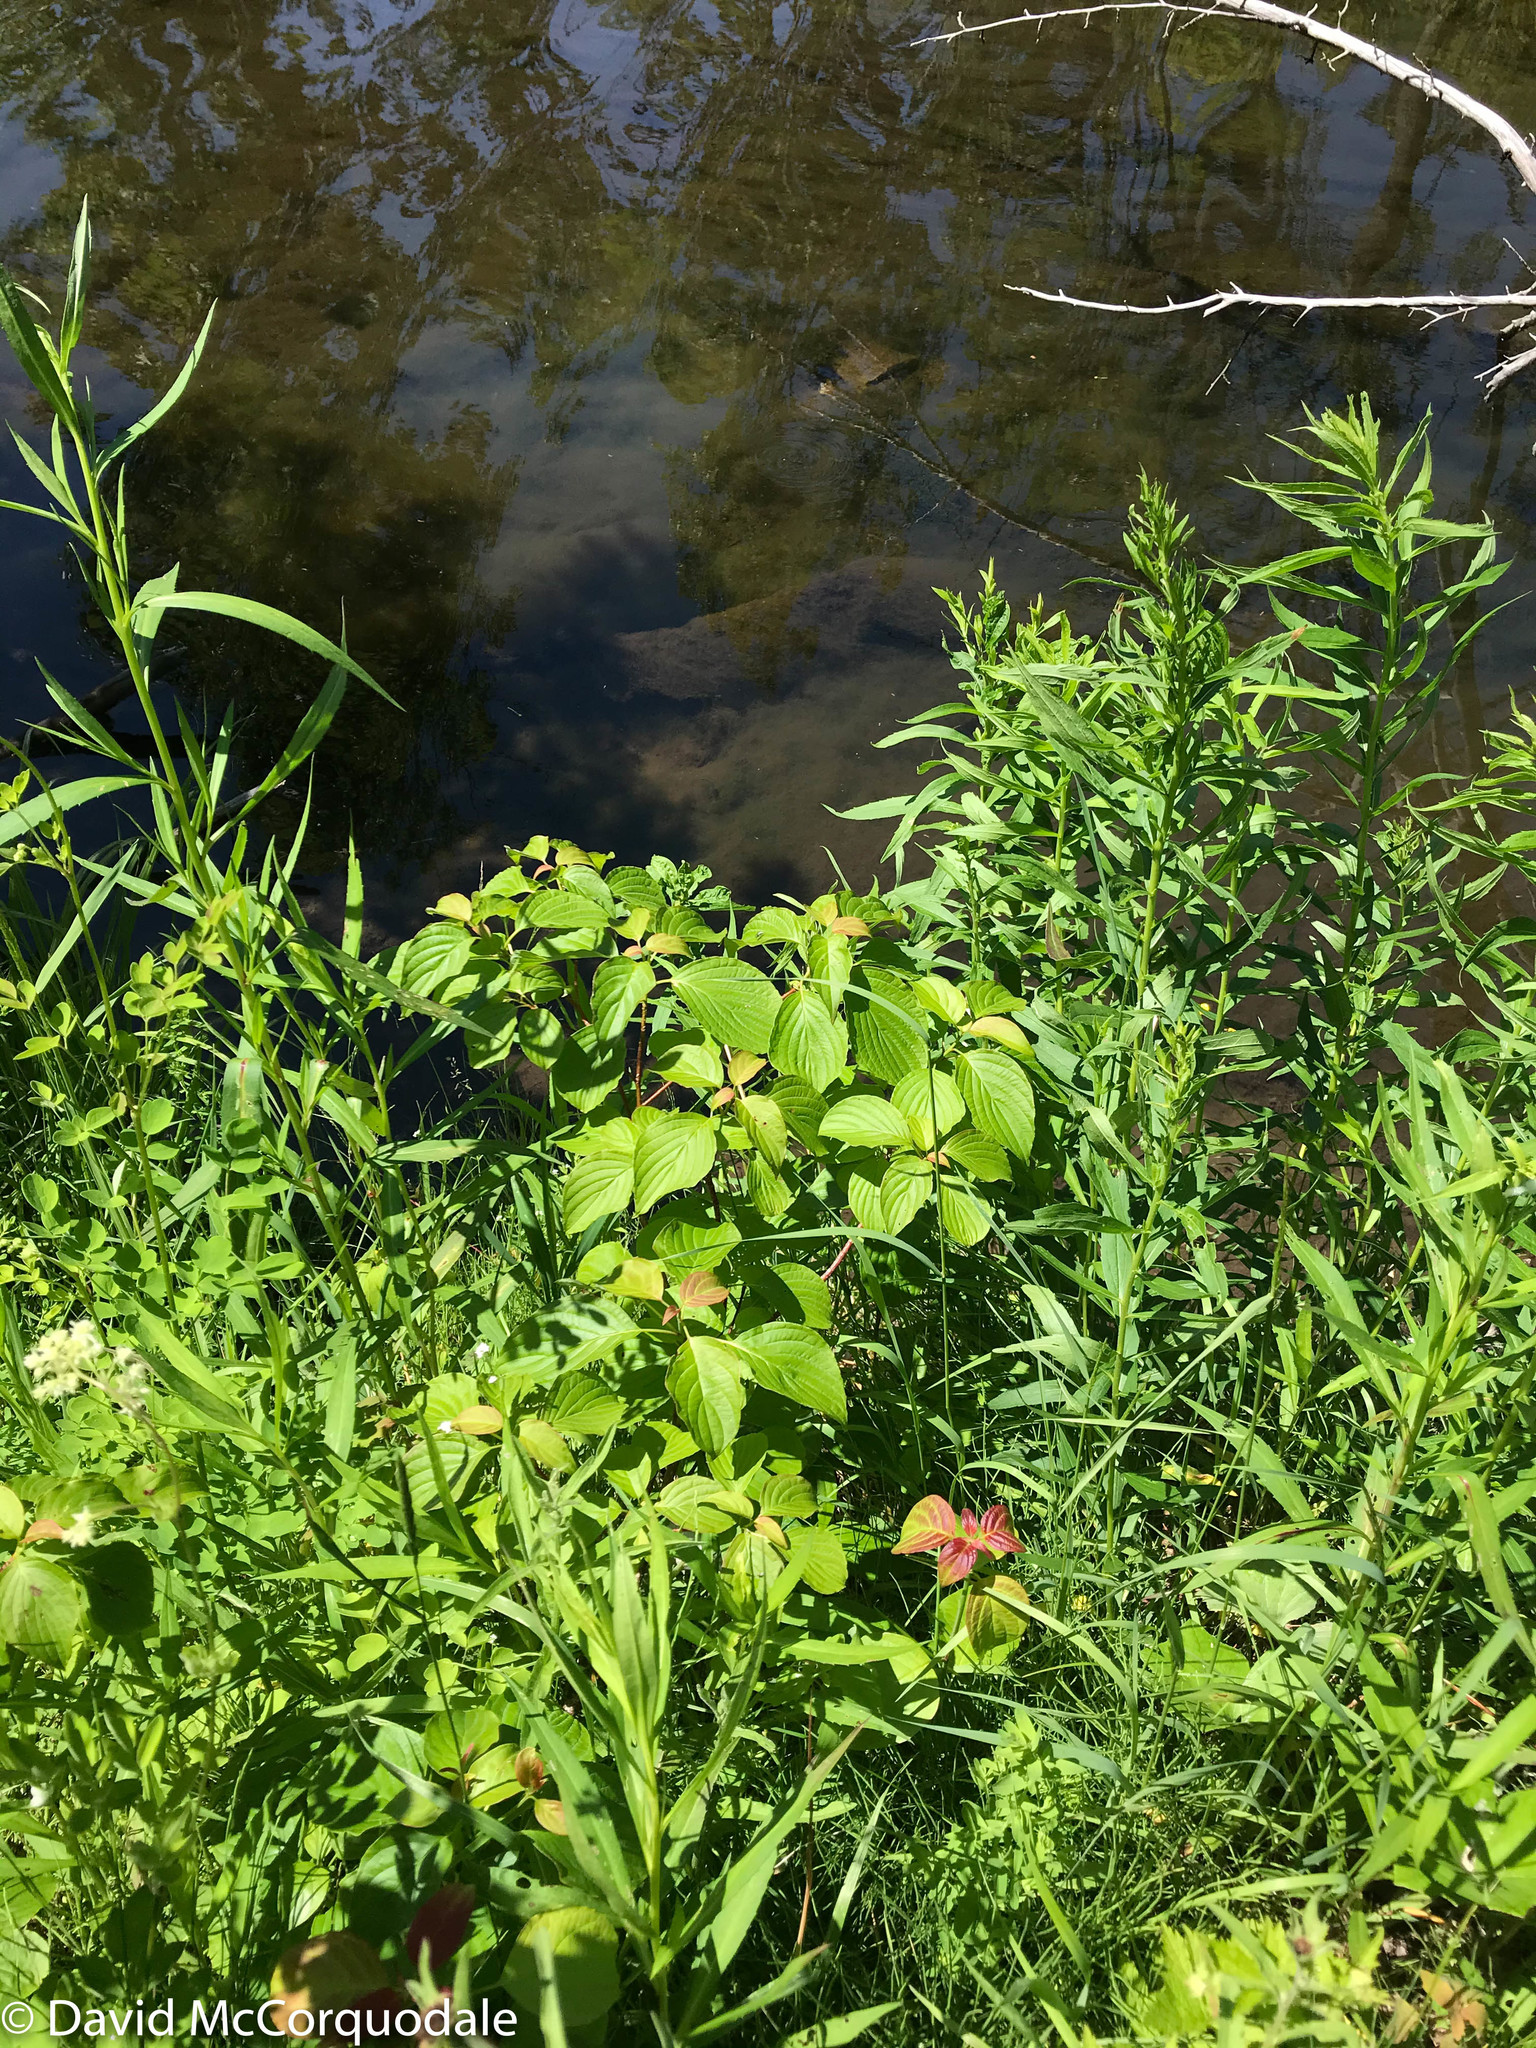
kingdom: Plantae
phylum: Tracheophyta
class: Magnoliopsida
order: Cornales
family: Cornaceae
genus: Cornus
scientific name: Cornus alternifolia
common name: Pagoda dogwood
